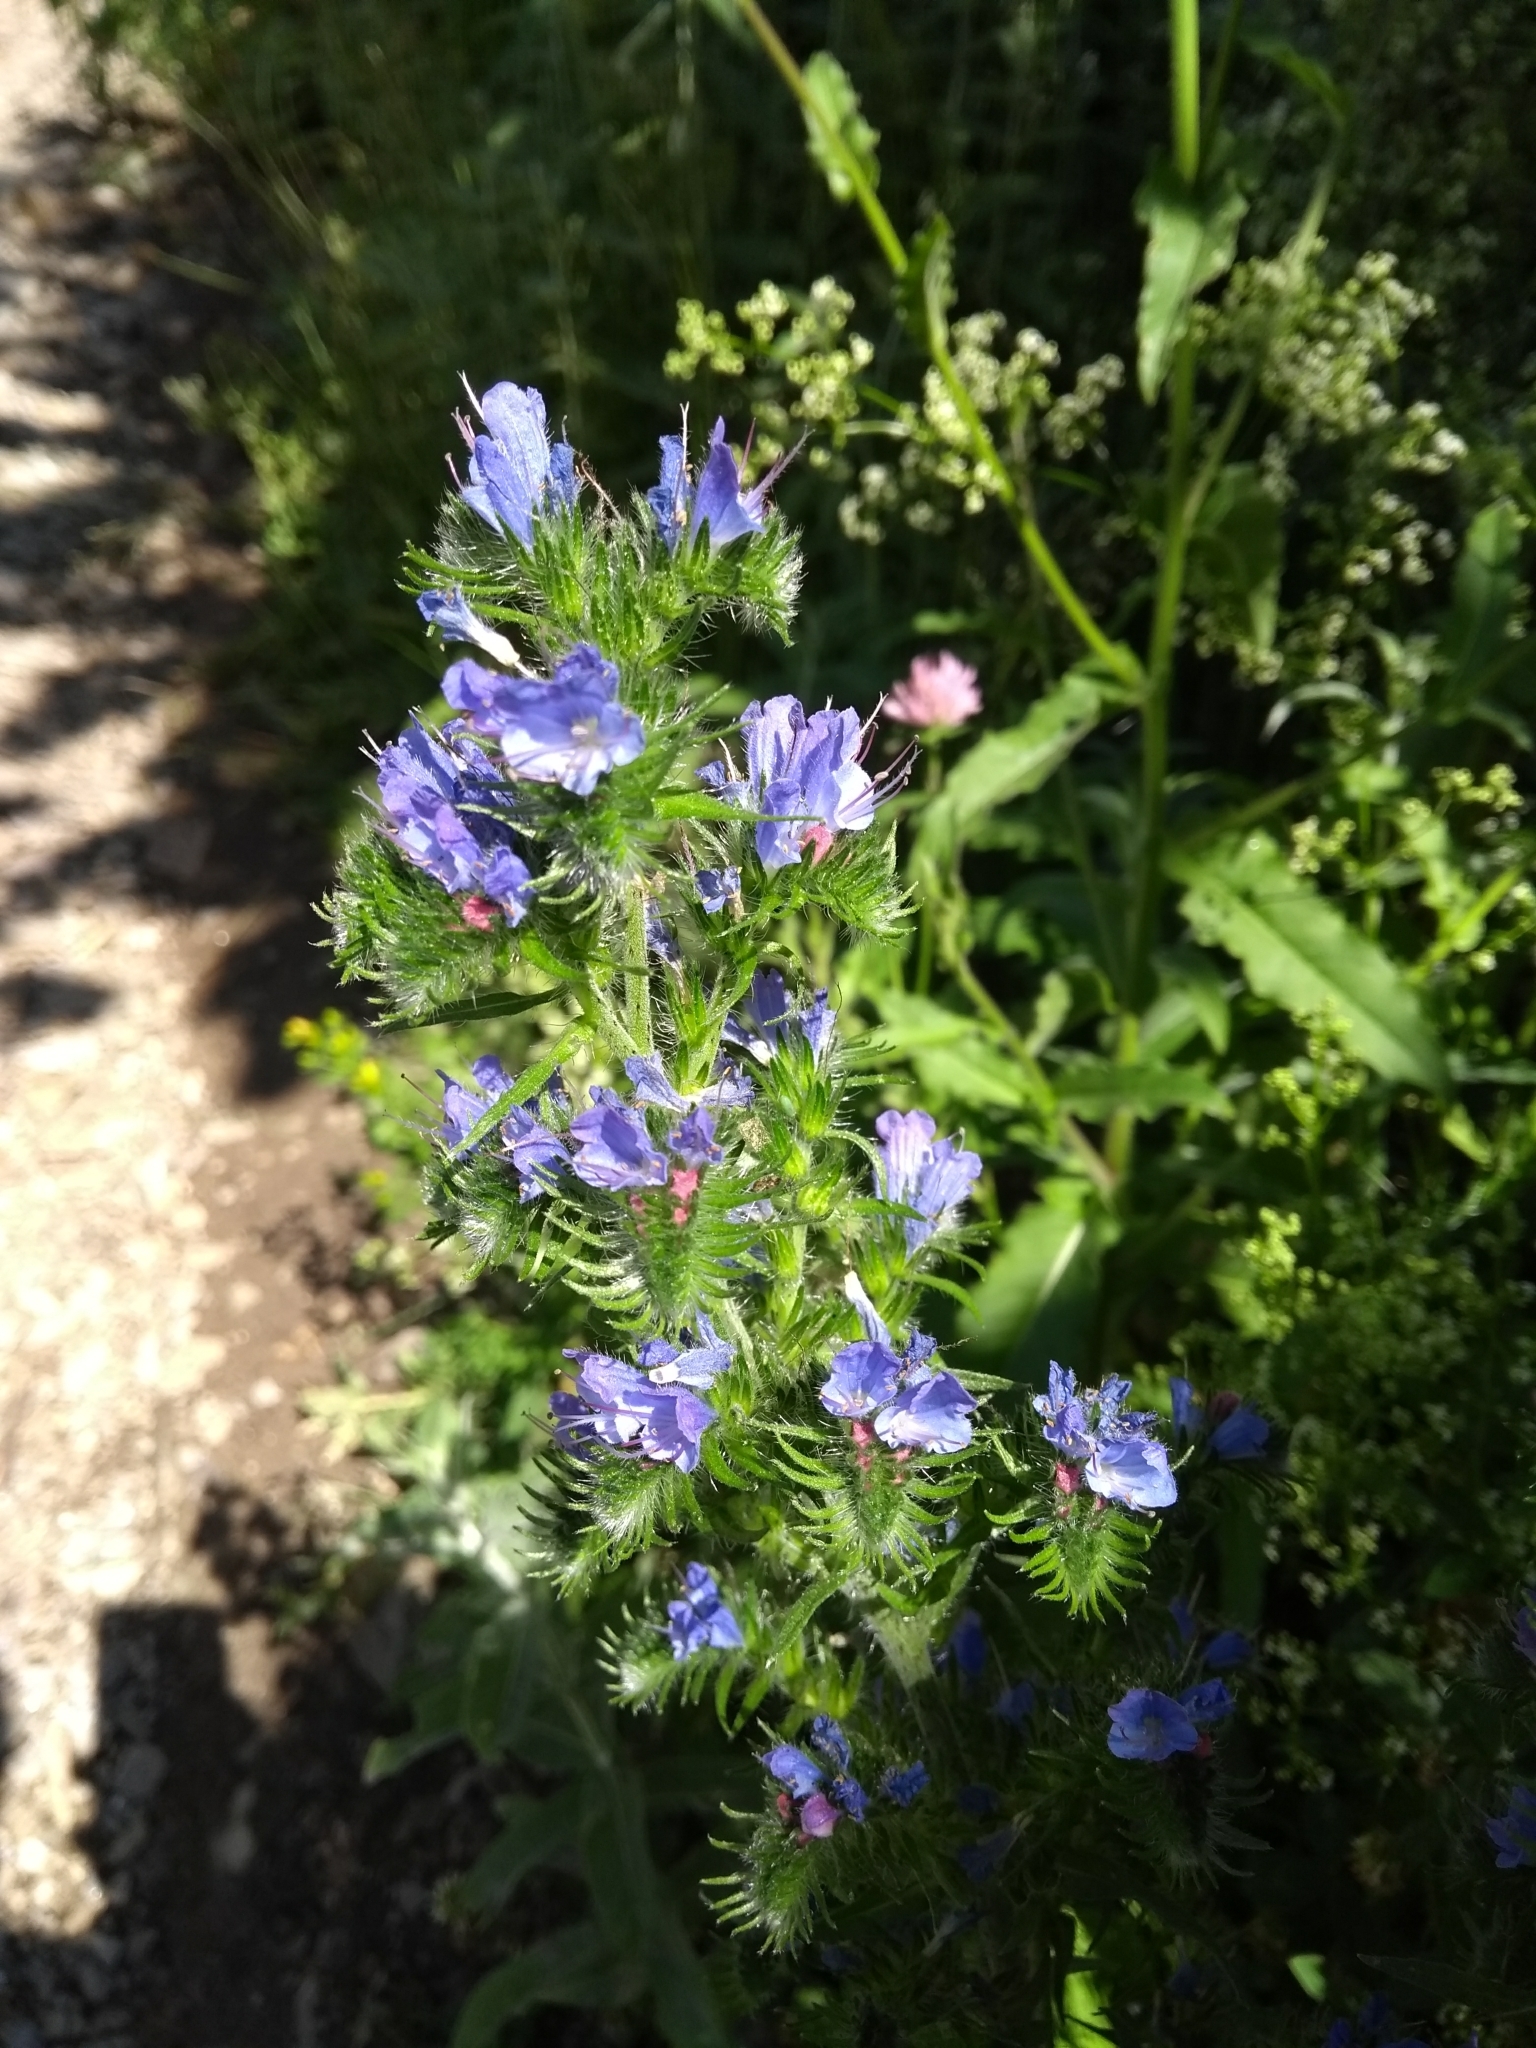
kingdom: Plantae
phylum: Tracheophyta
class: Magnoliopsida
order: Boraginales
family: Boraginaceae
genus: Echium
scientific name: Echium vulgare
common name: Common viper's bugloss
